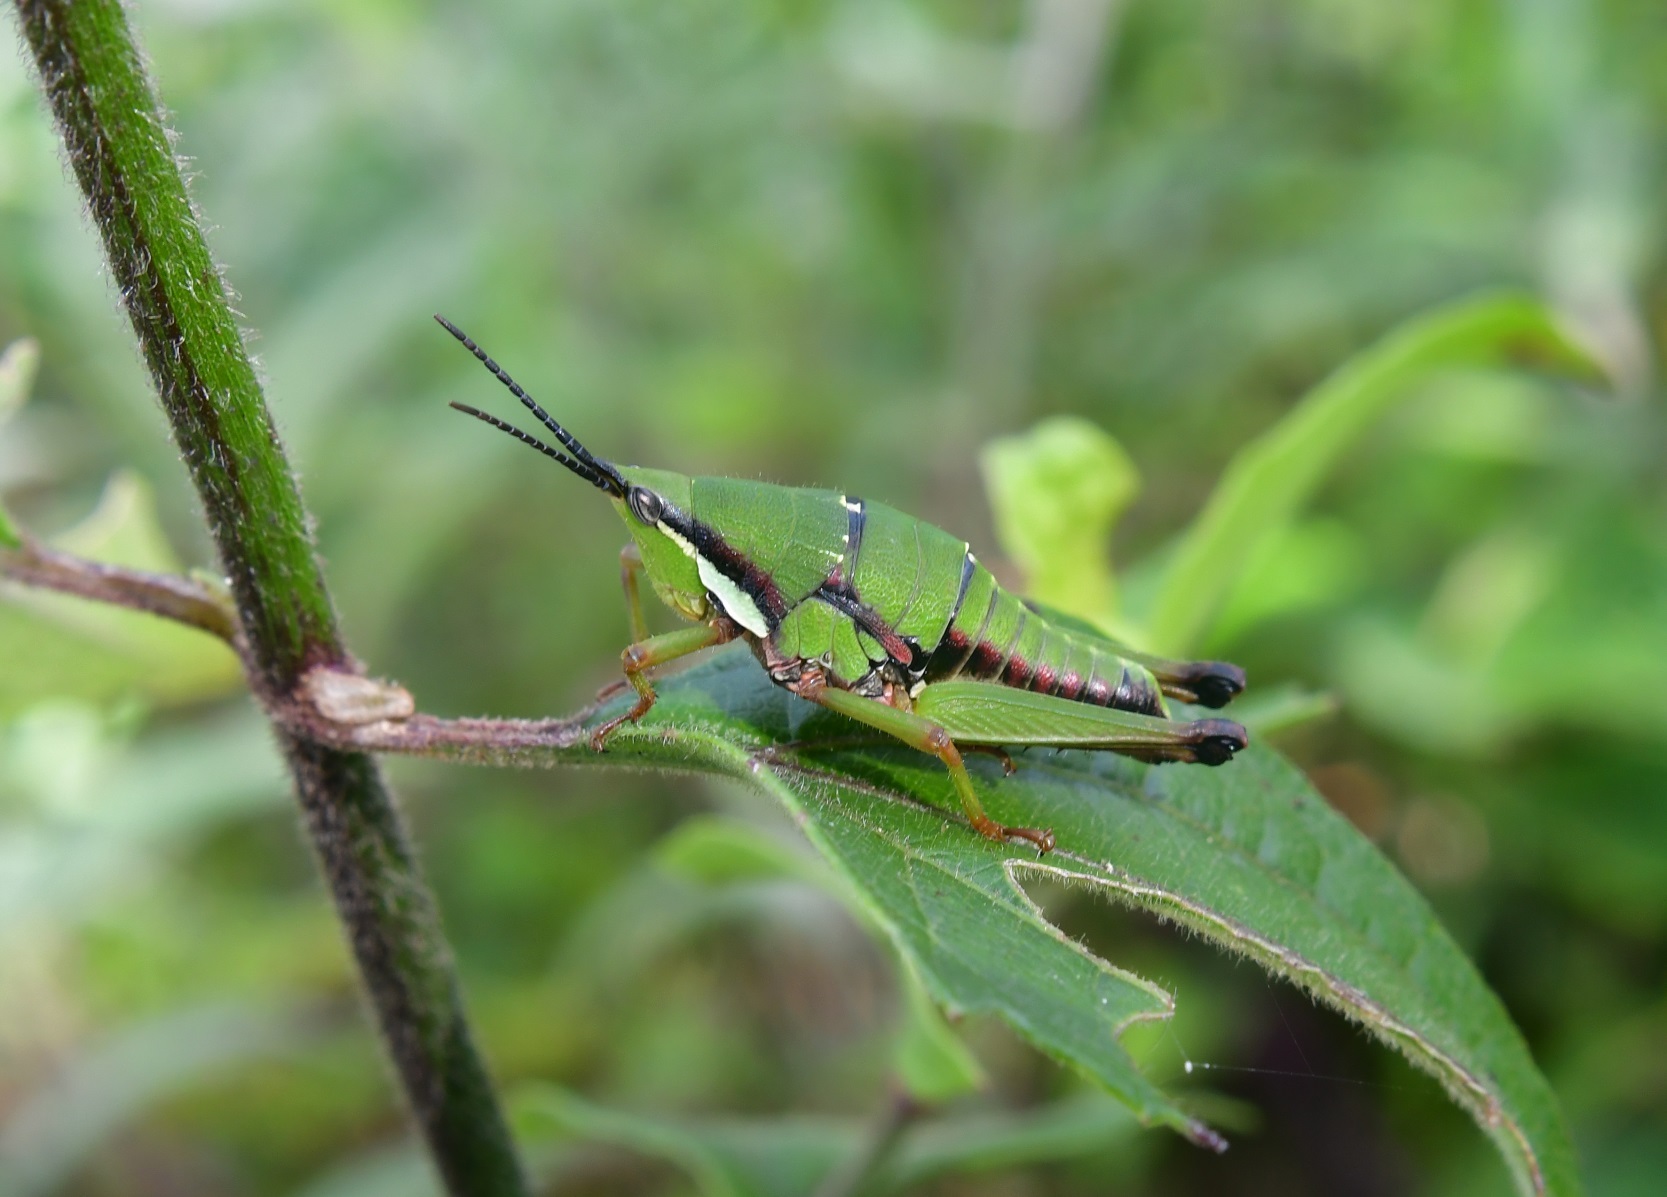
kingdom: Animalia
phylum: Arthropoda
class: Insecta
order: Orthoptera
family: Pyrgomorphidae
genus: Sphenarium
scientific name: Sphenarium histrio
